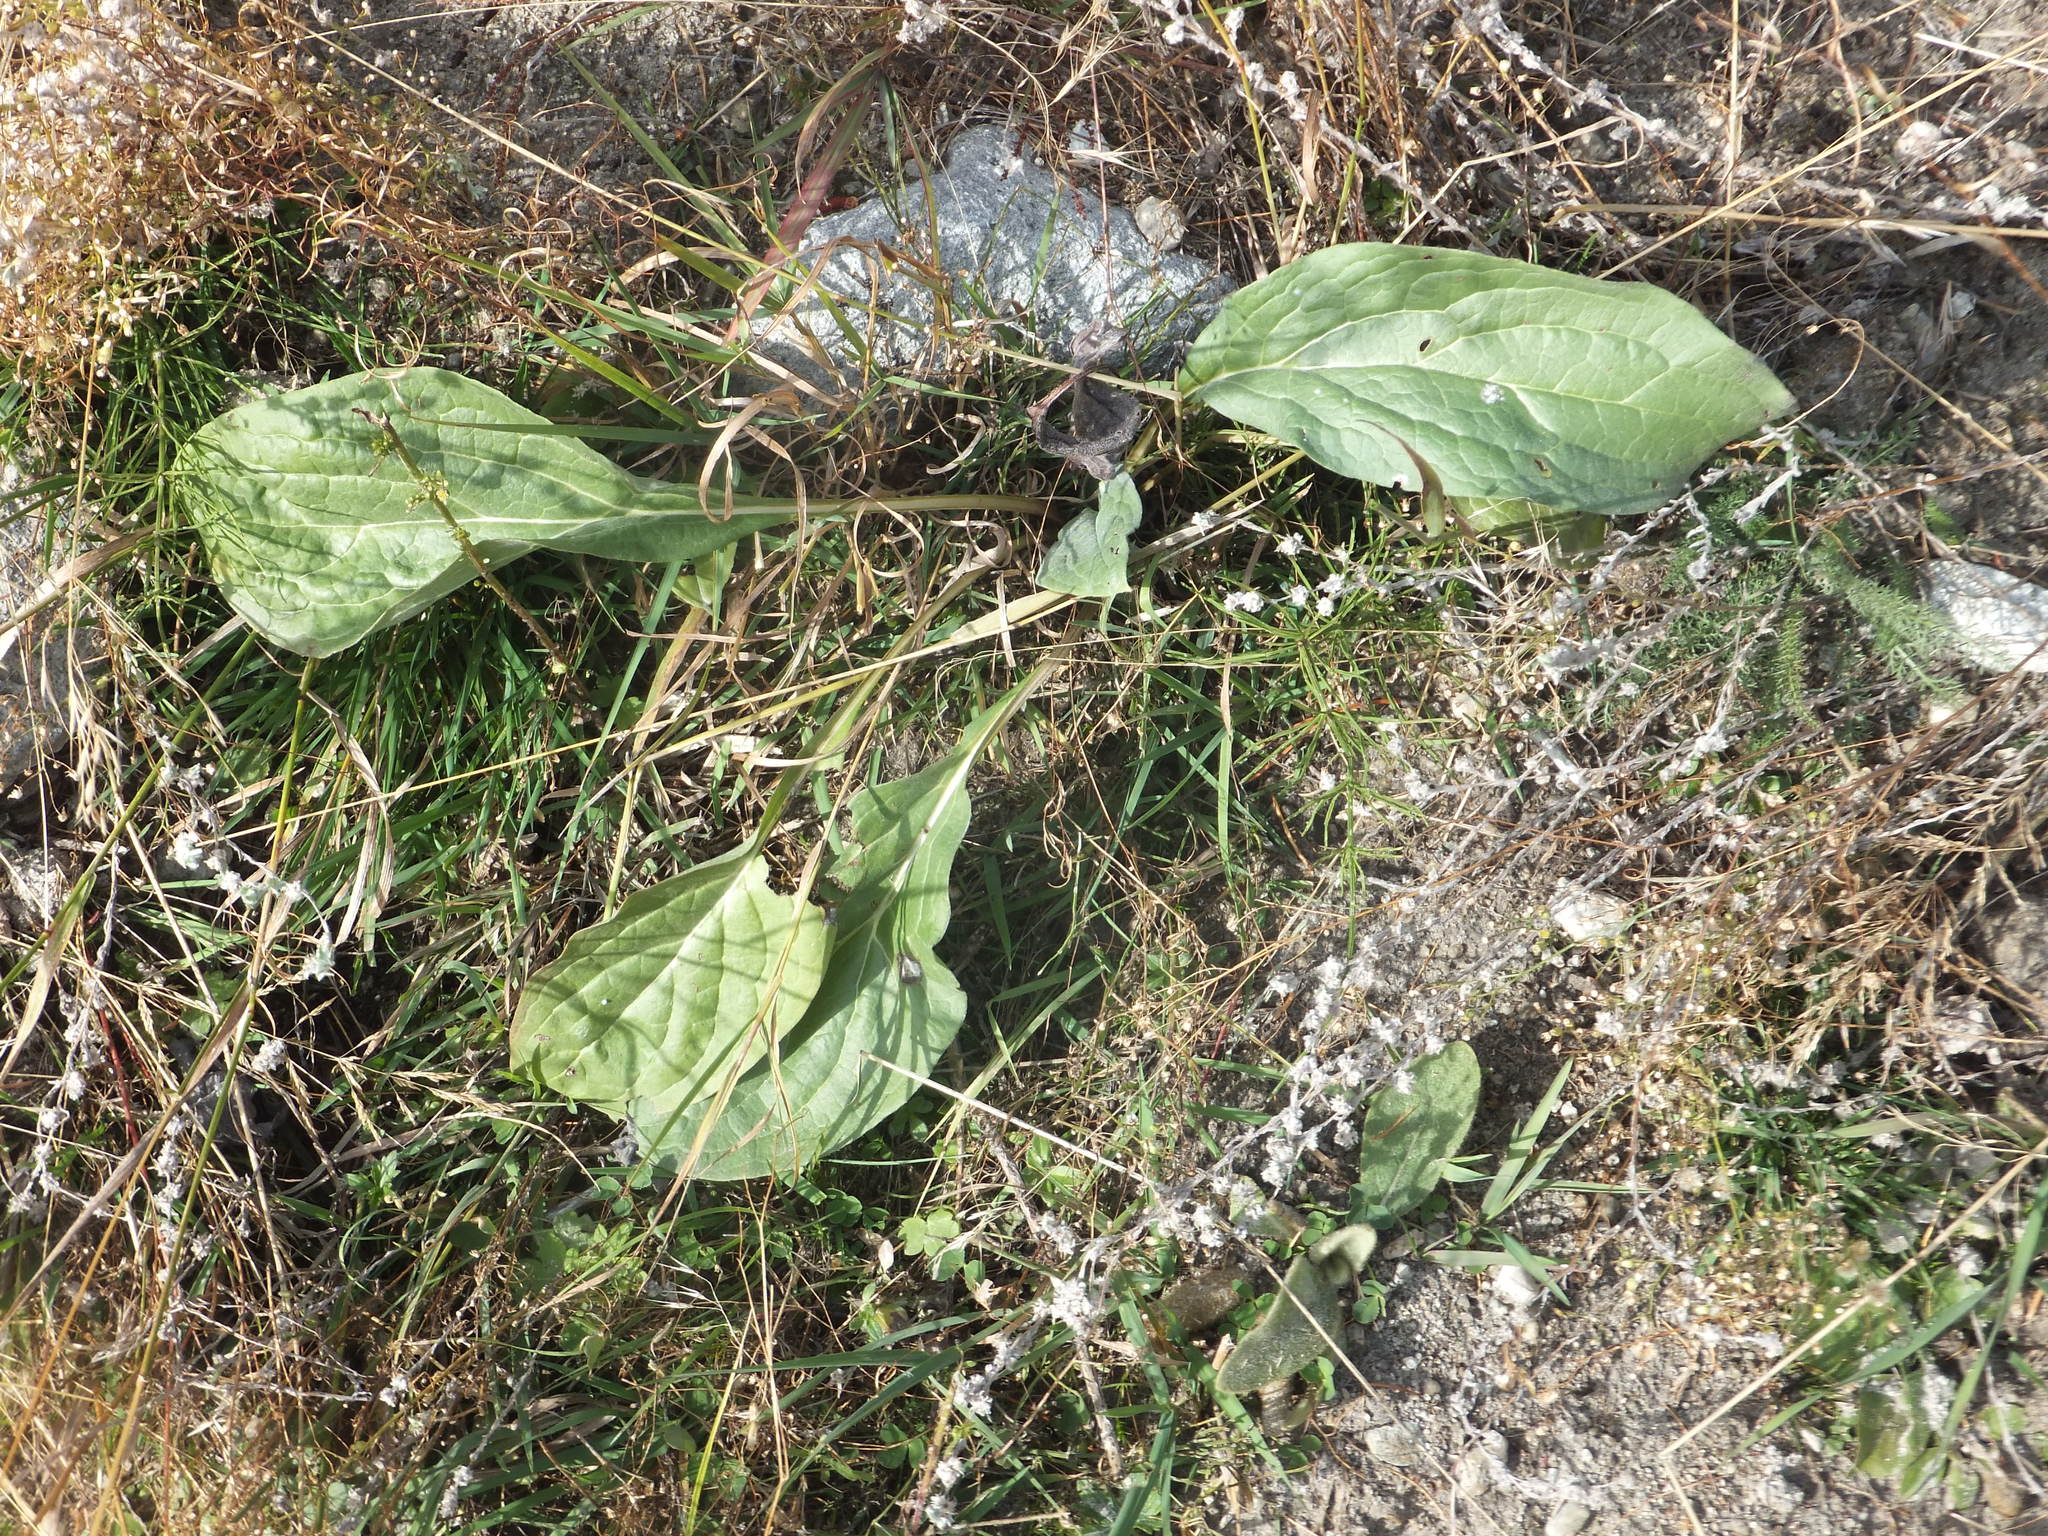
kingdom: Plantae
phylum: Tracheophyta
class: Magnoliopsida
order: Boraginales
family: Boraginaceae
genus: Cynoglossum
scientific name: Cynoglossum officinale
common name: Hound's-tongue
